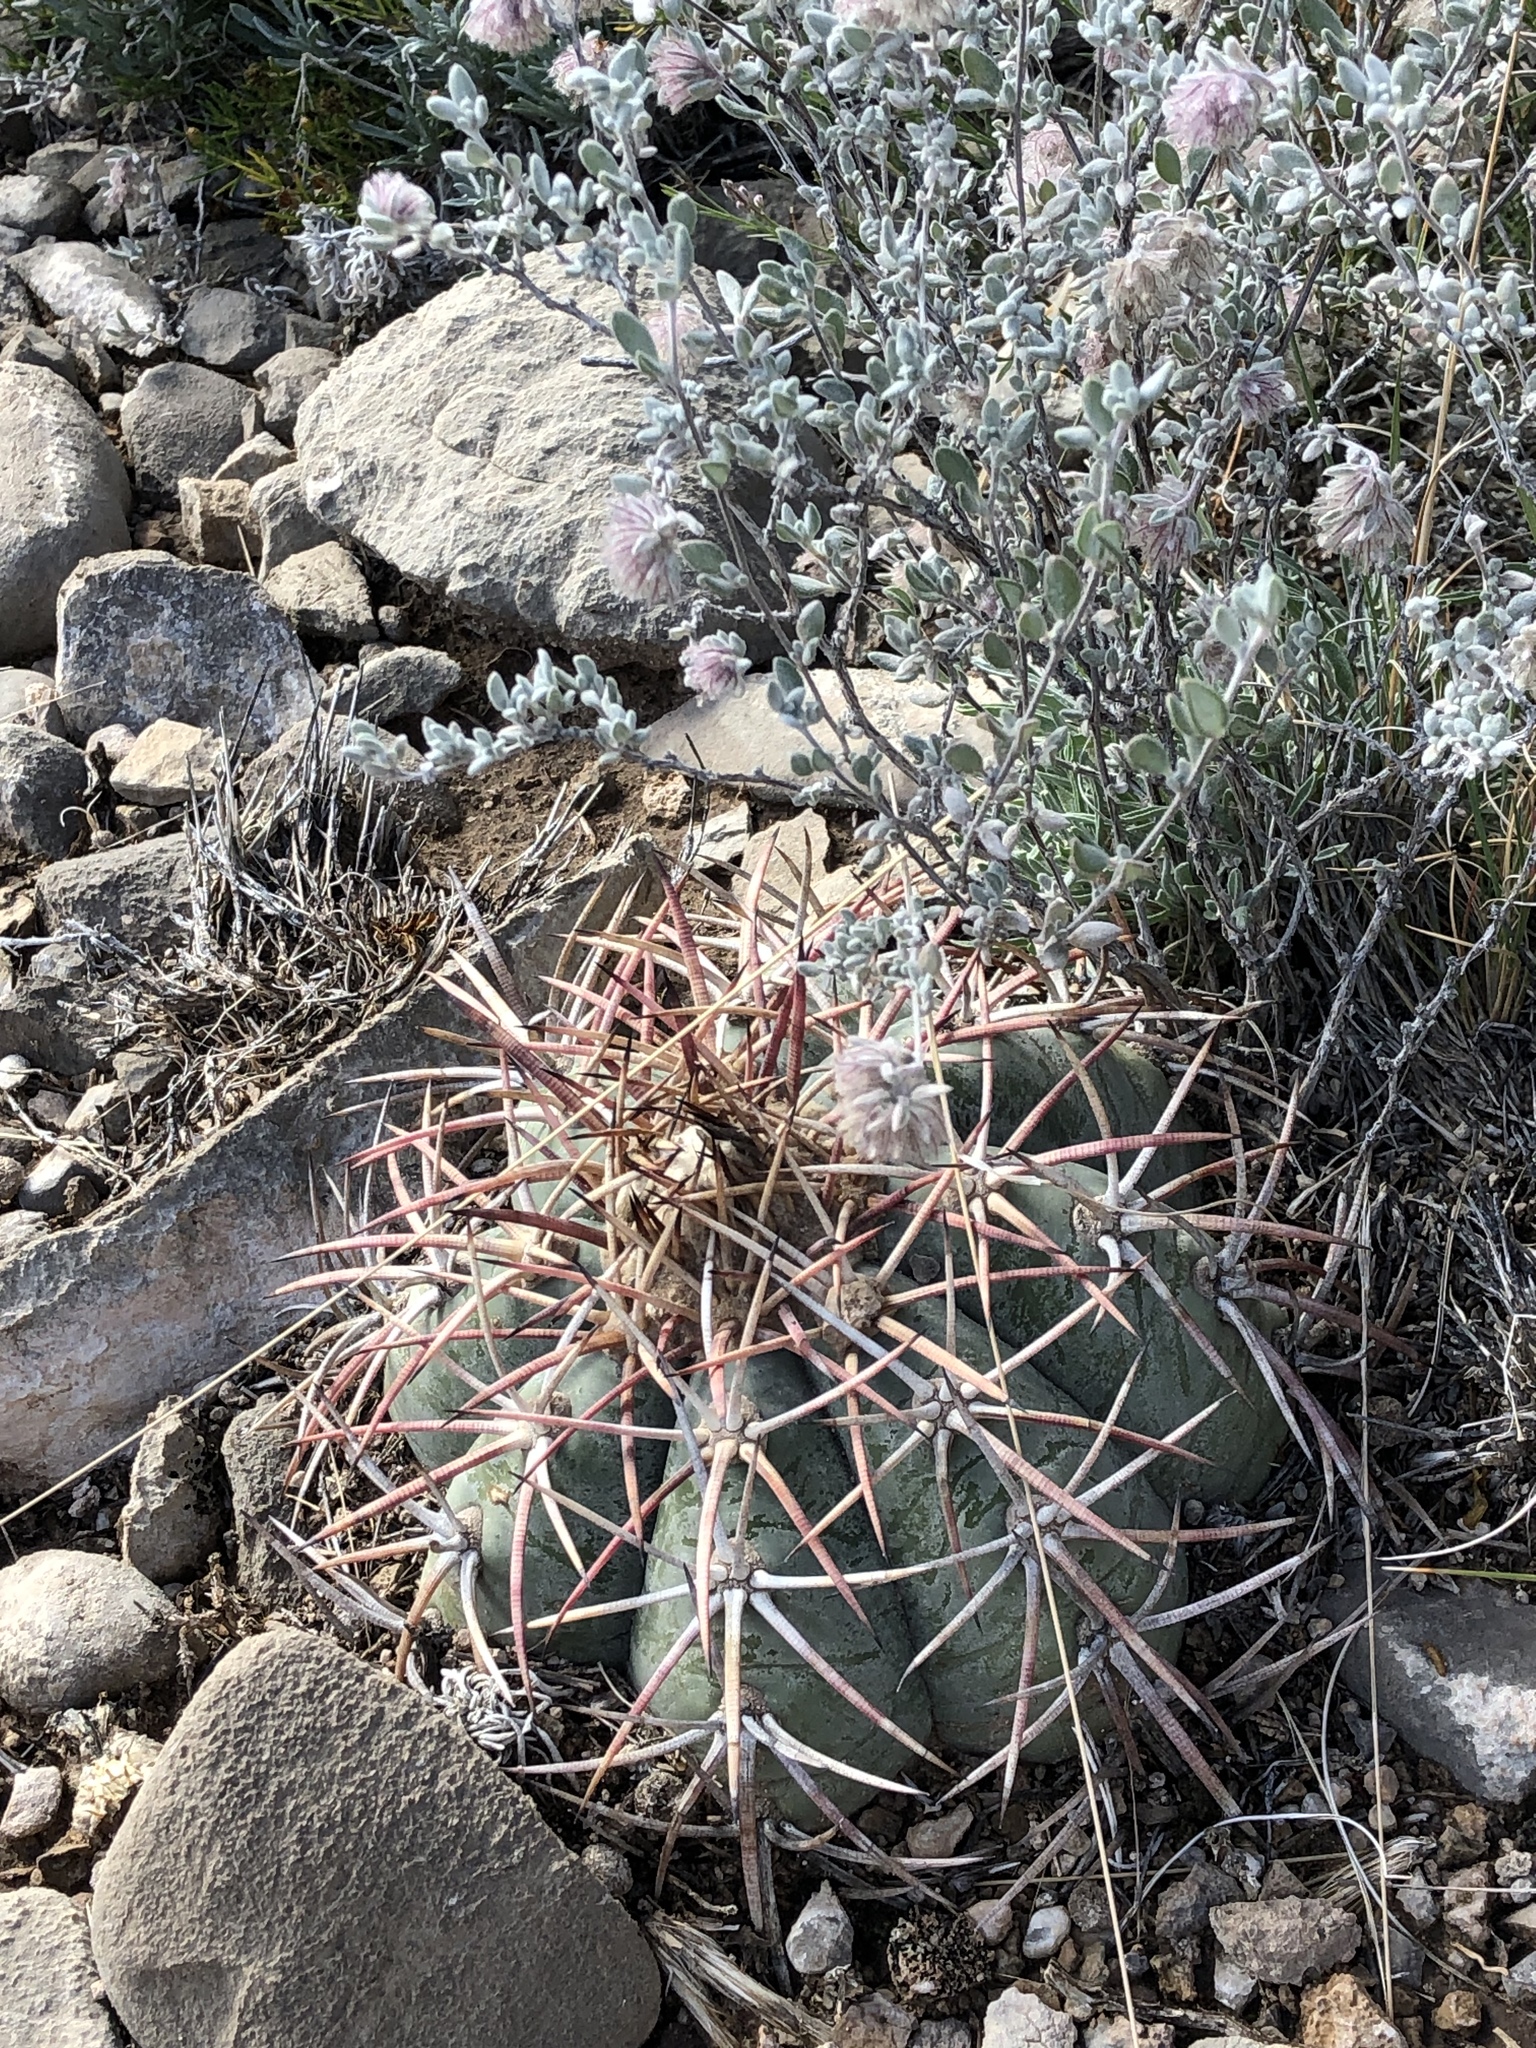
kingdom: Plantae
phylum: Tracheophyta
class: Magnoliopsida
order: Caryophyllales
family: Cactaceae
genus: Echinocactus
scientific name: Echinocactus horizonthalonius
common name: Devilshead
